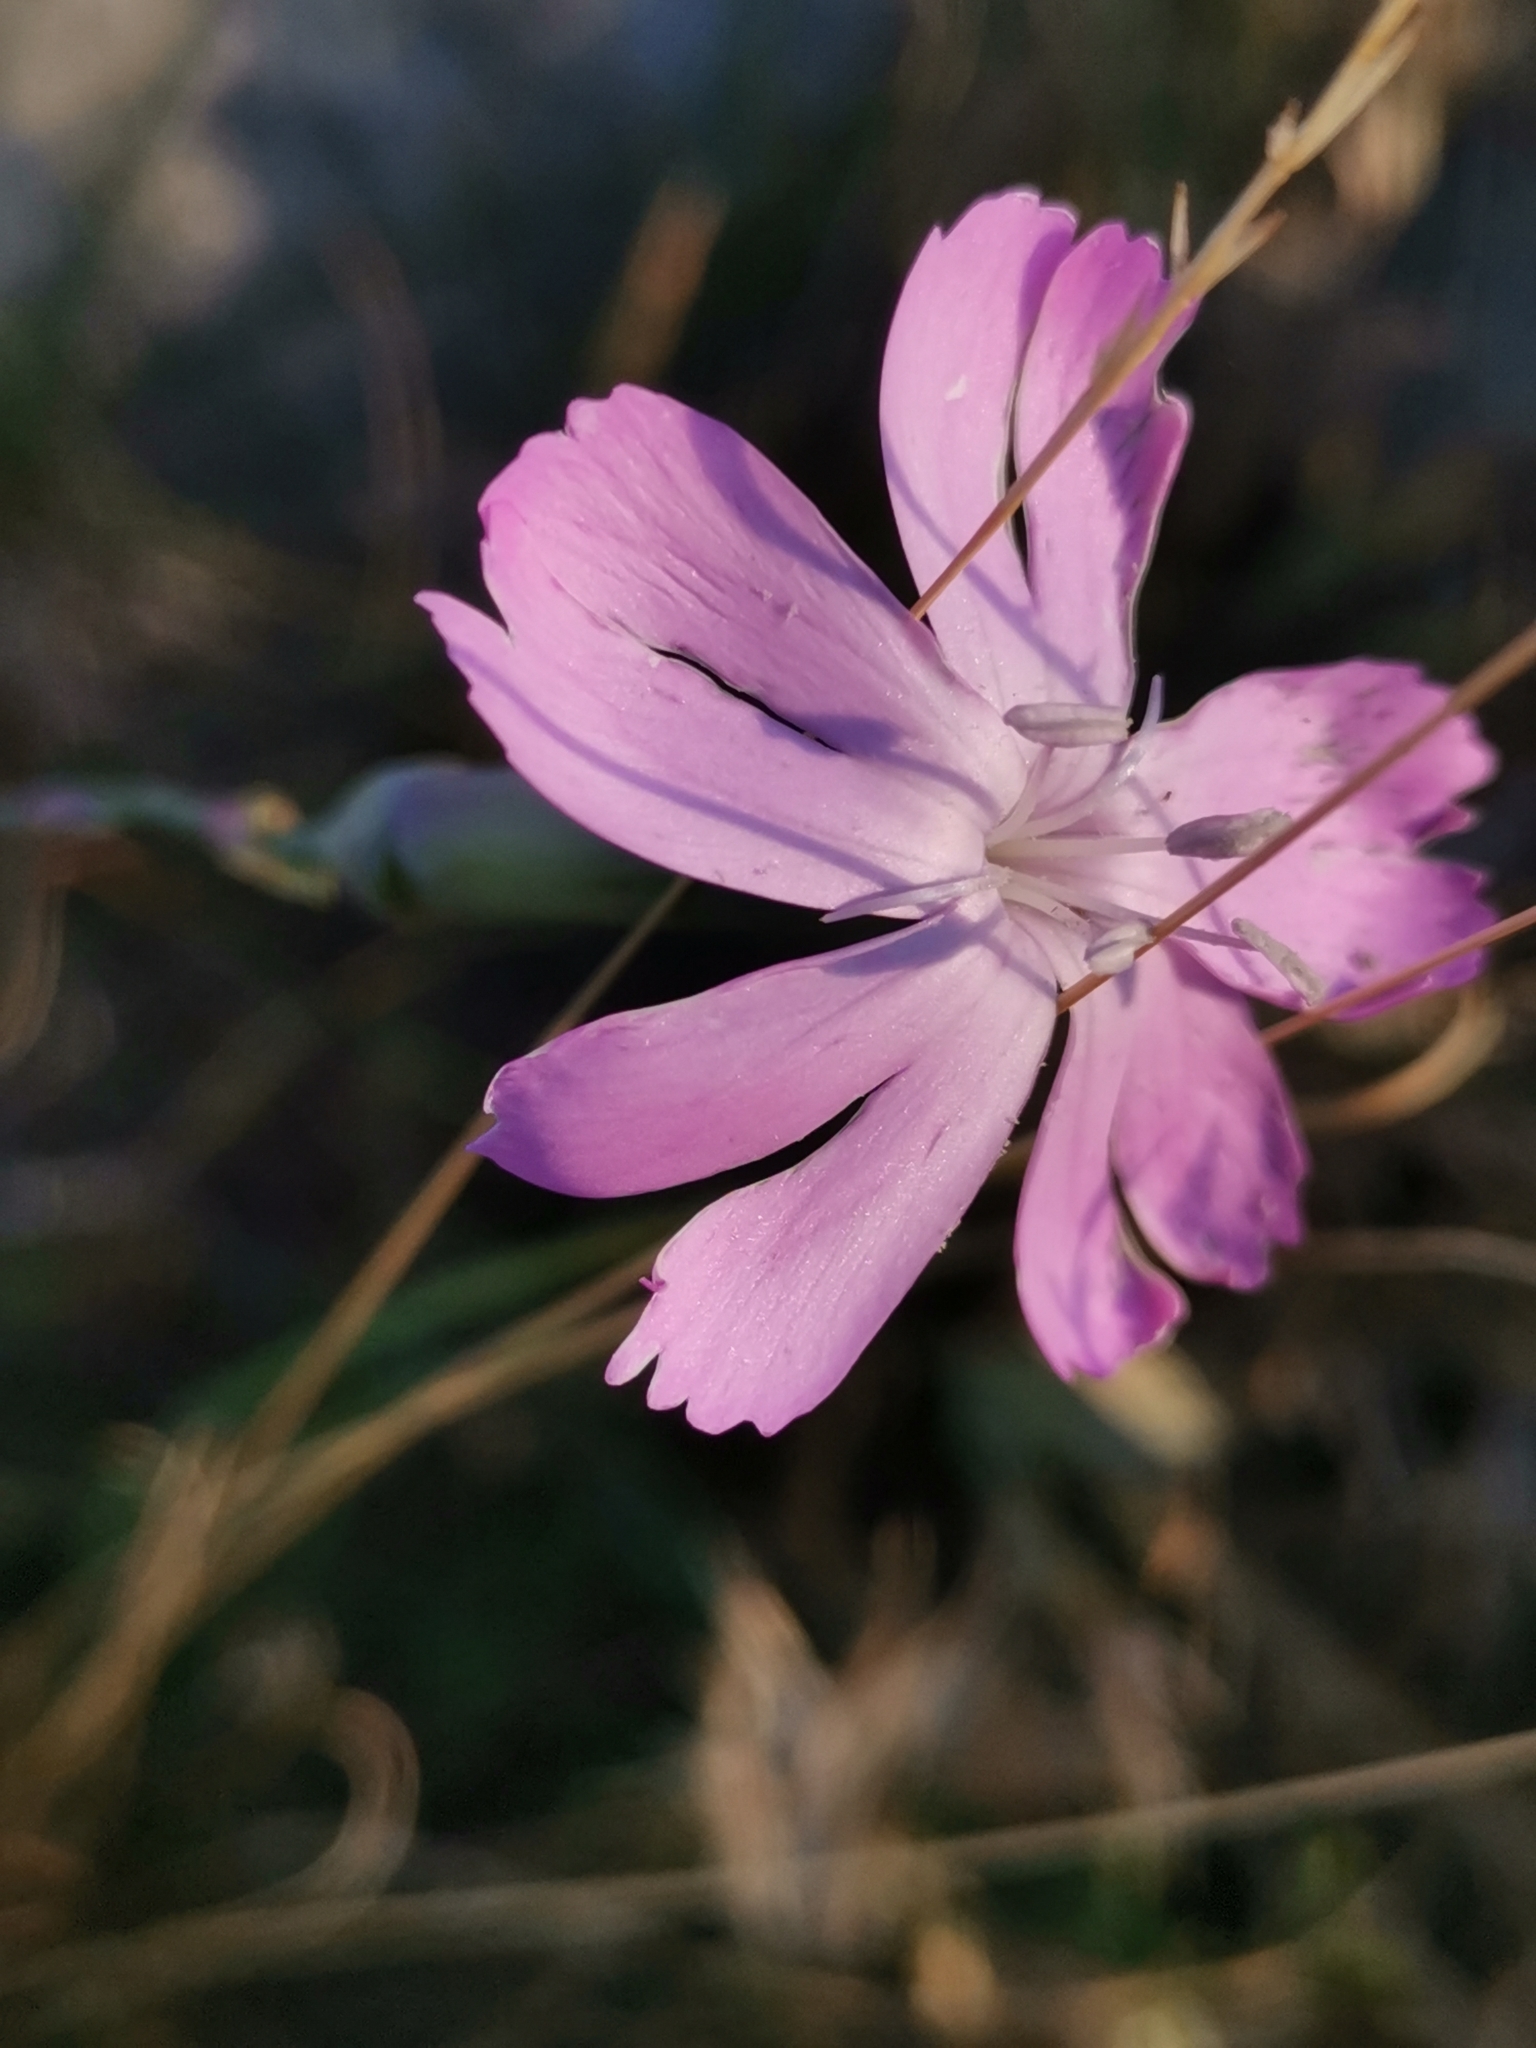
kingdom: Plantae
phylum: Tracheophyta
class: Magnoliopsida
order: Caryophyllales
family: Caryophyllaceae
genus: Dianthus
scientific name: Dianthus sylvestris
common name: Wood pink
